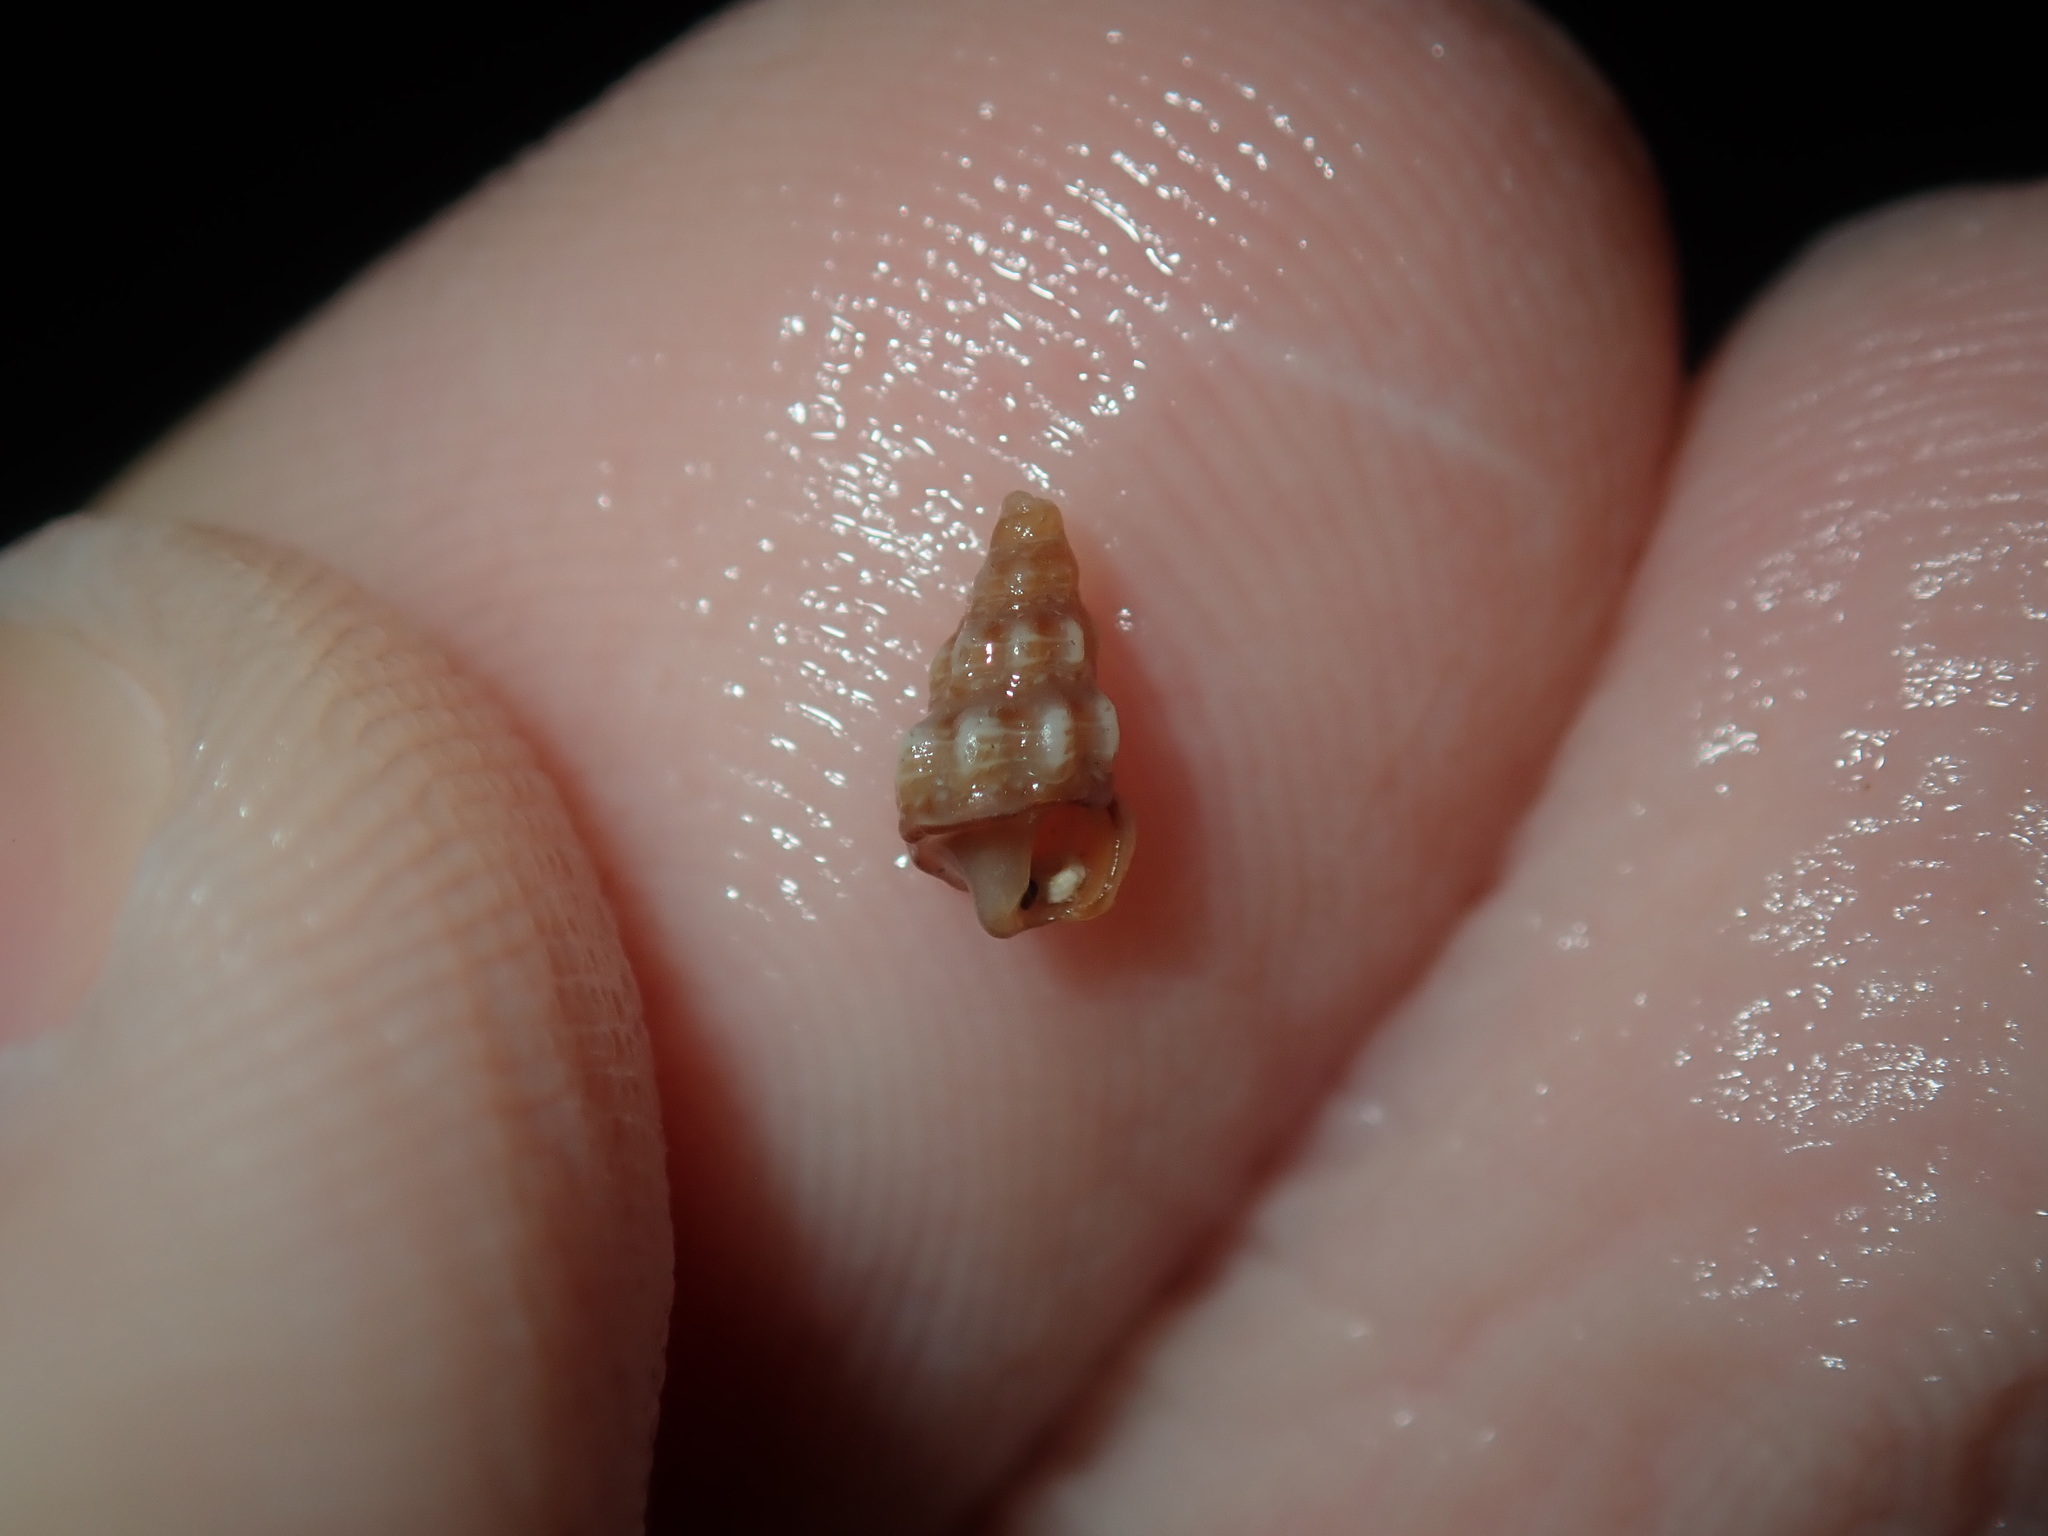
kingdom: Animalia
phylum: Mollusca
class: Gastropoda
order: Neogastropoda
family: Horaiclavidae
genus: Austrodrillia
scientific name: Austrodrillia beraudiana
